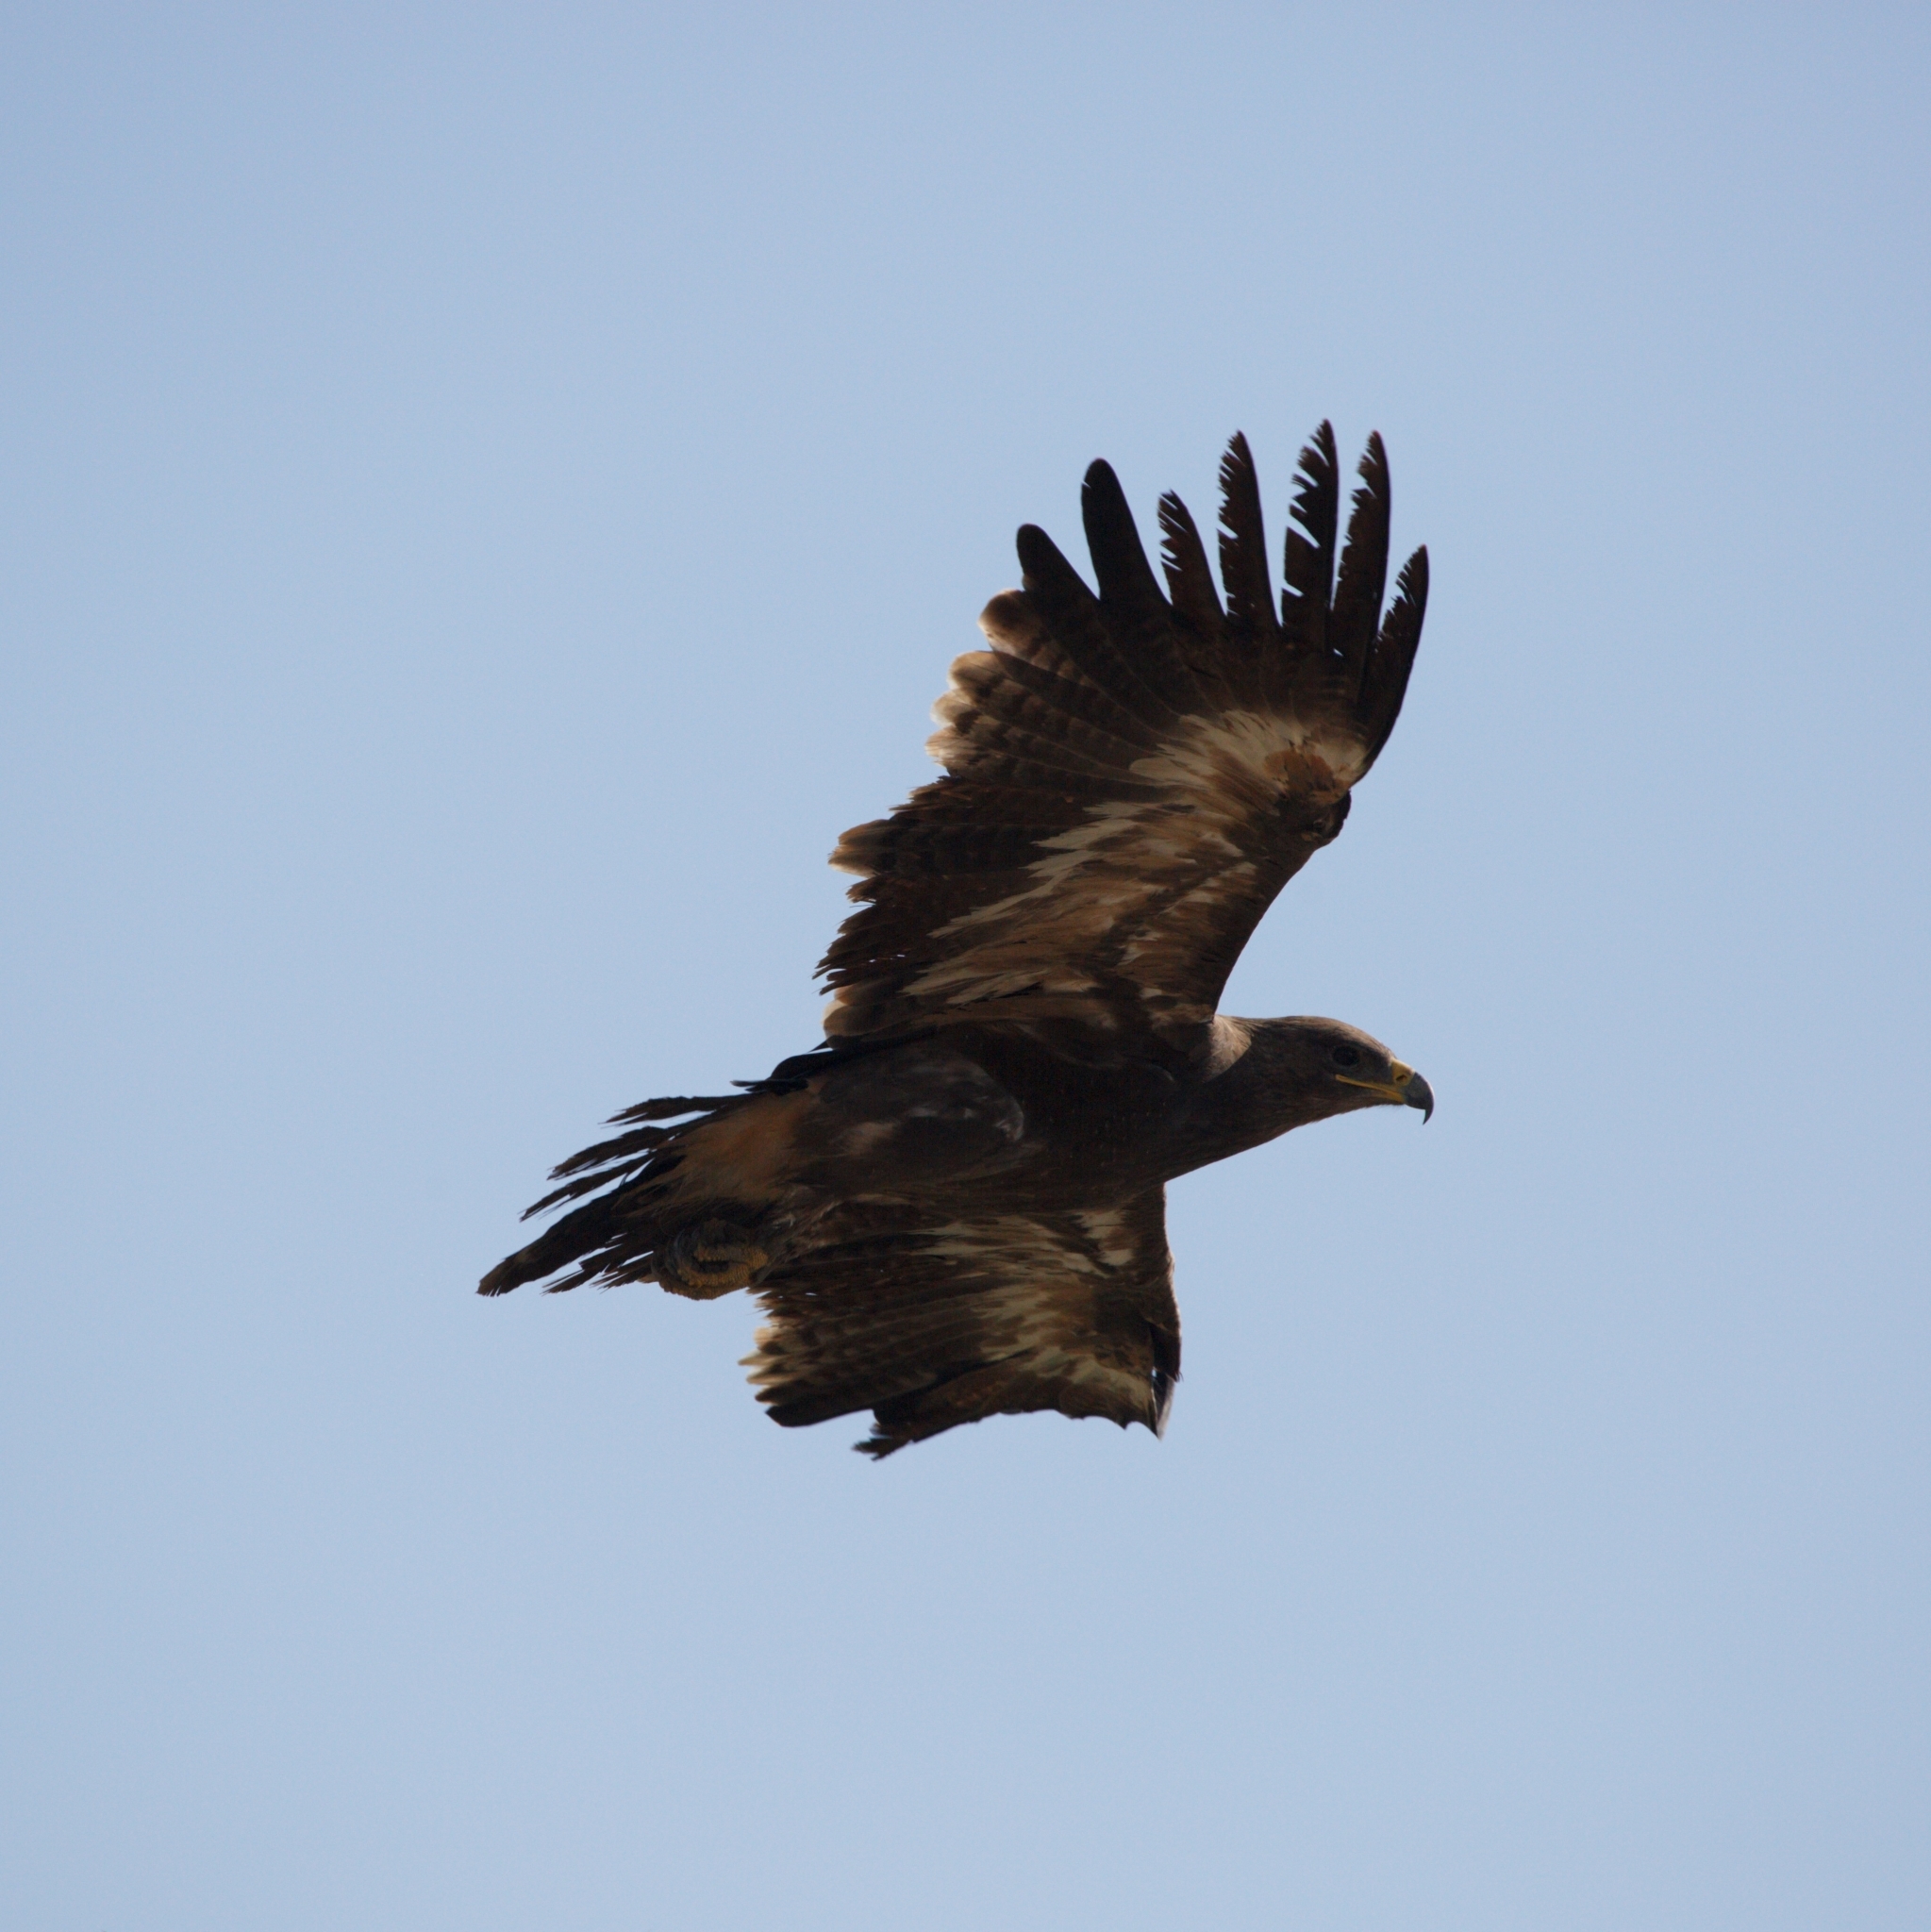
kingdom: Animalia
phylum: Chordata
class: Aves
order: Accipitriformes
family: Accipitridae
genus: Aquila
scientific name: Aquila nipalensis
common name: Steppe eagle
